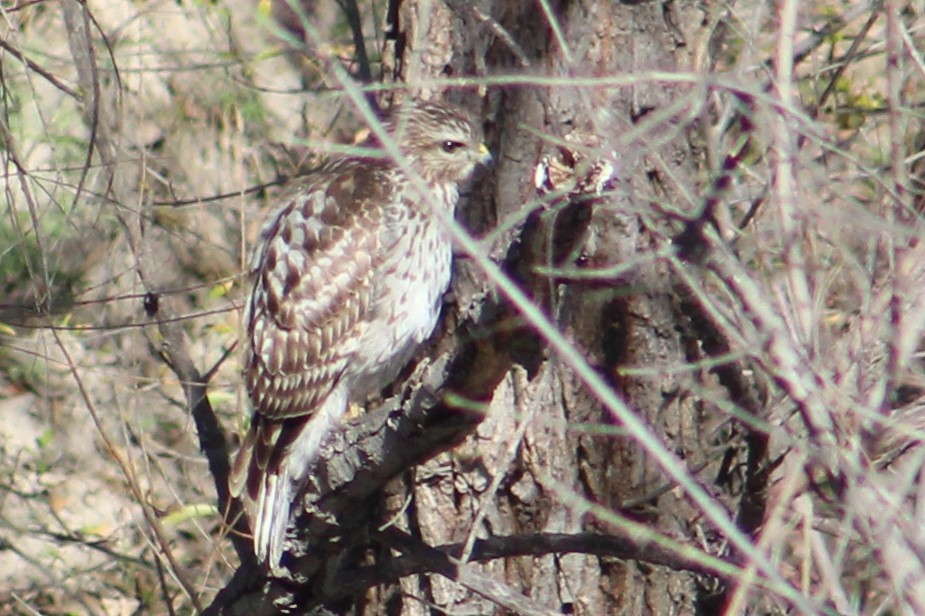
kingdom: Animalia
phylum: Chordata
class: Aves
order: Accipitriformes
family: Accipitridae
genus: Buteo
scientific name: Buteo lineatus
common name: Red-shouldered hawk
